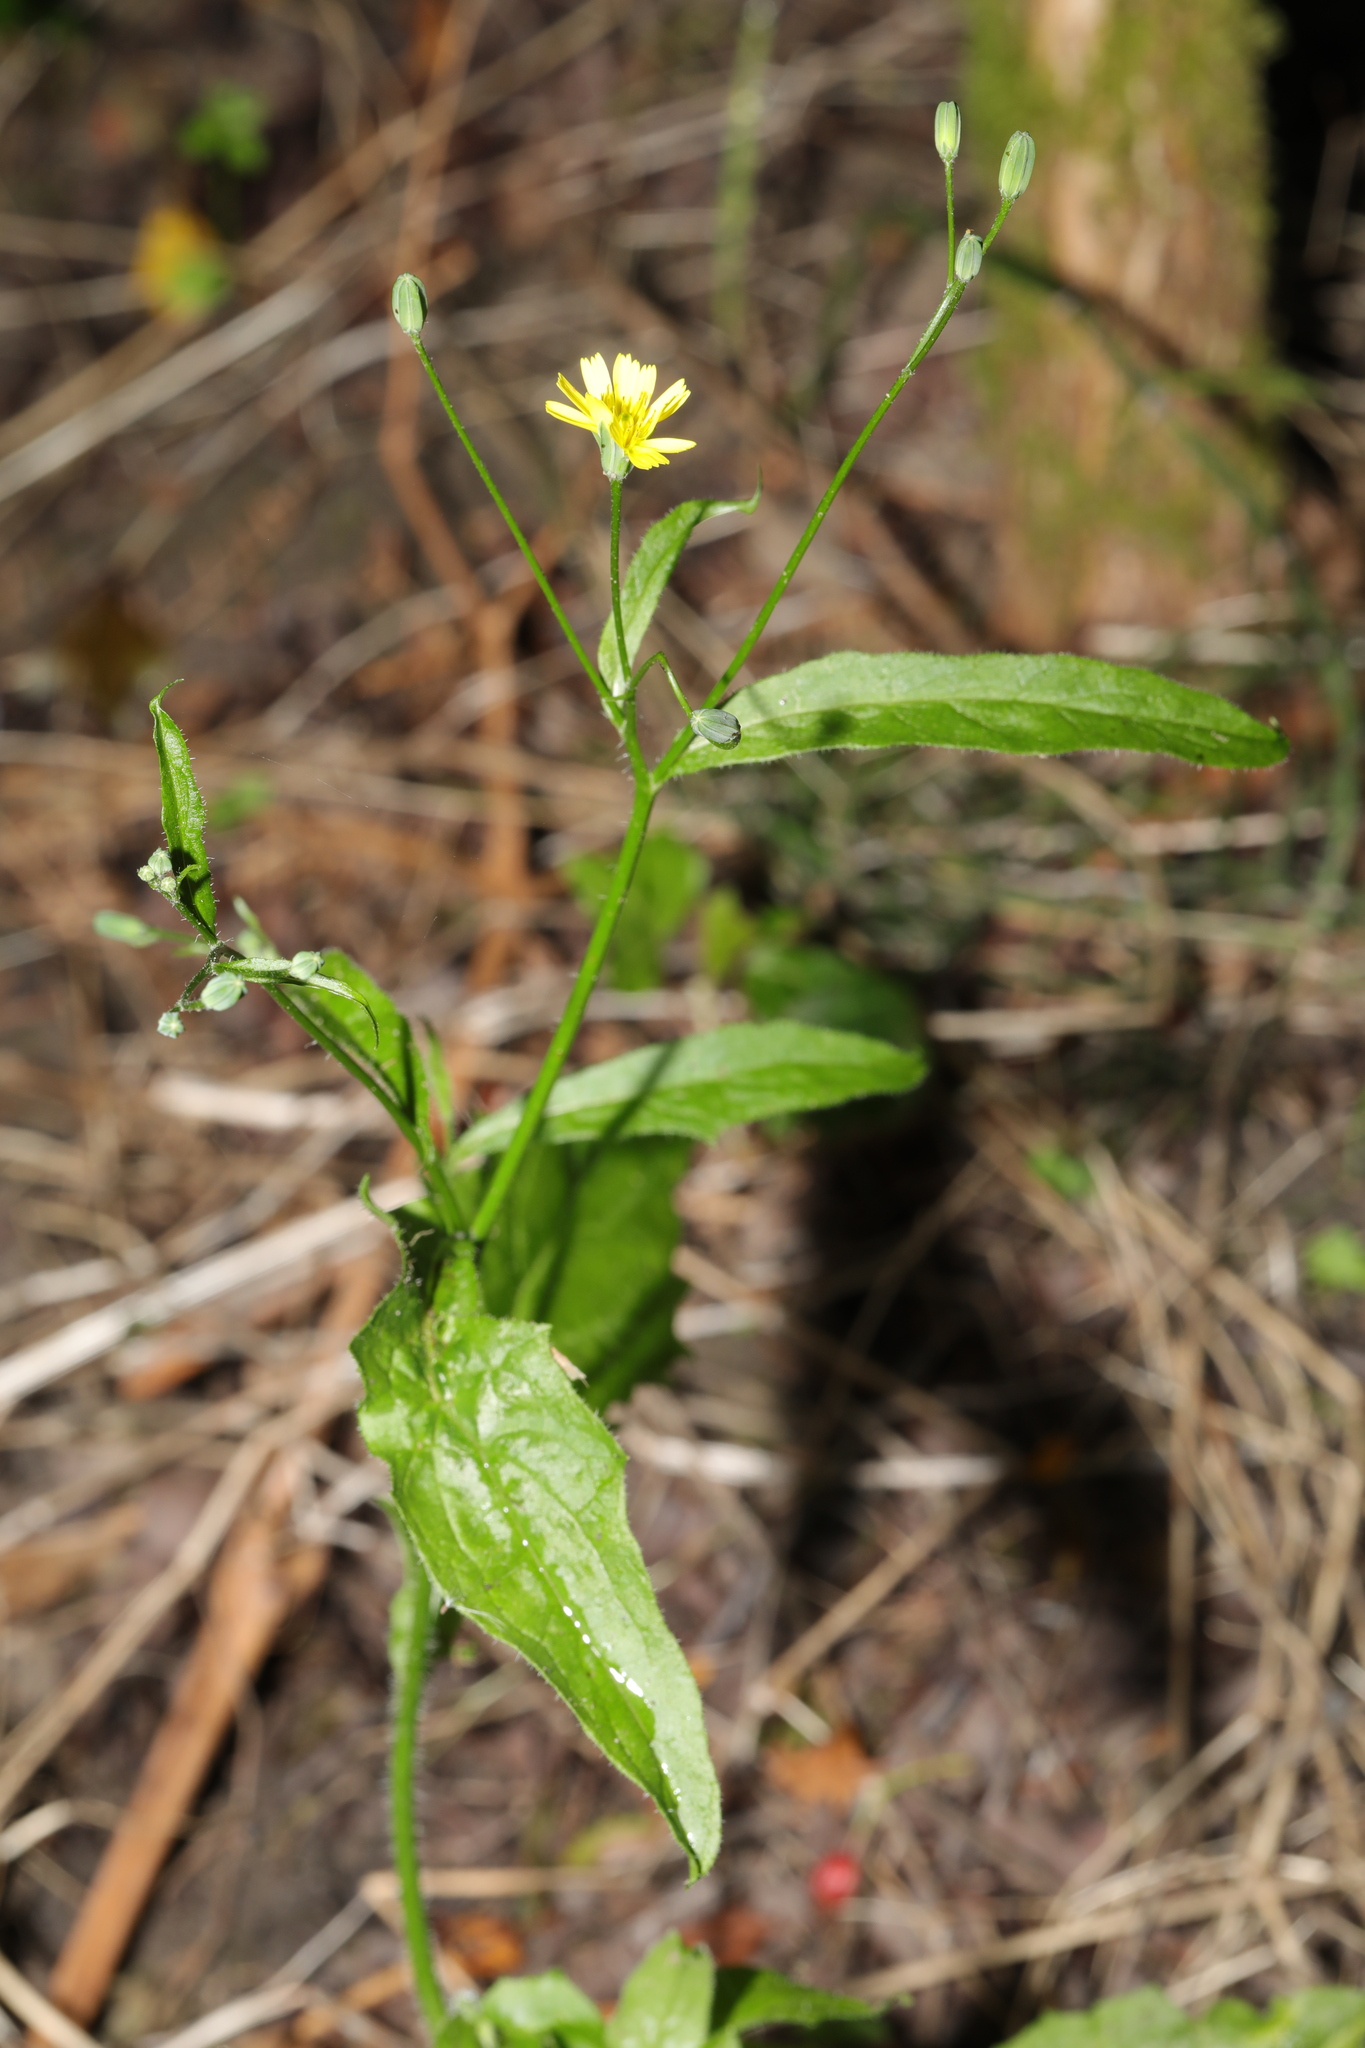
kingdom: Plantae
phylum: Tracheophyta
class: Magnoliopsida
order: Asterales
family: Asteraceae
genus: Lapsana
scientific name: Lapsana communis
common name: Nipplewort
